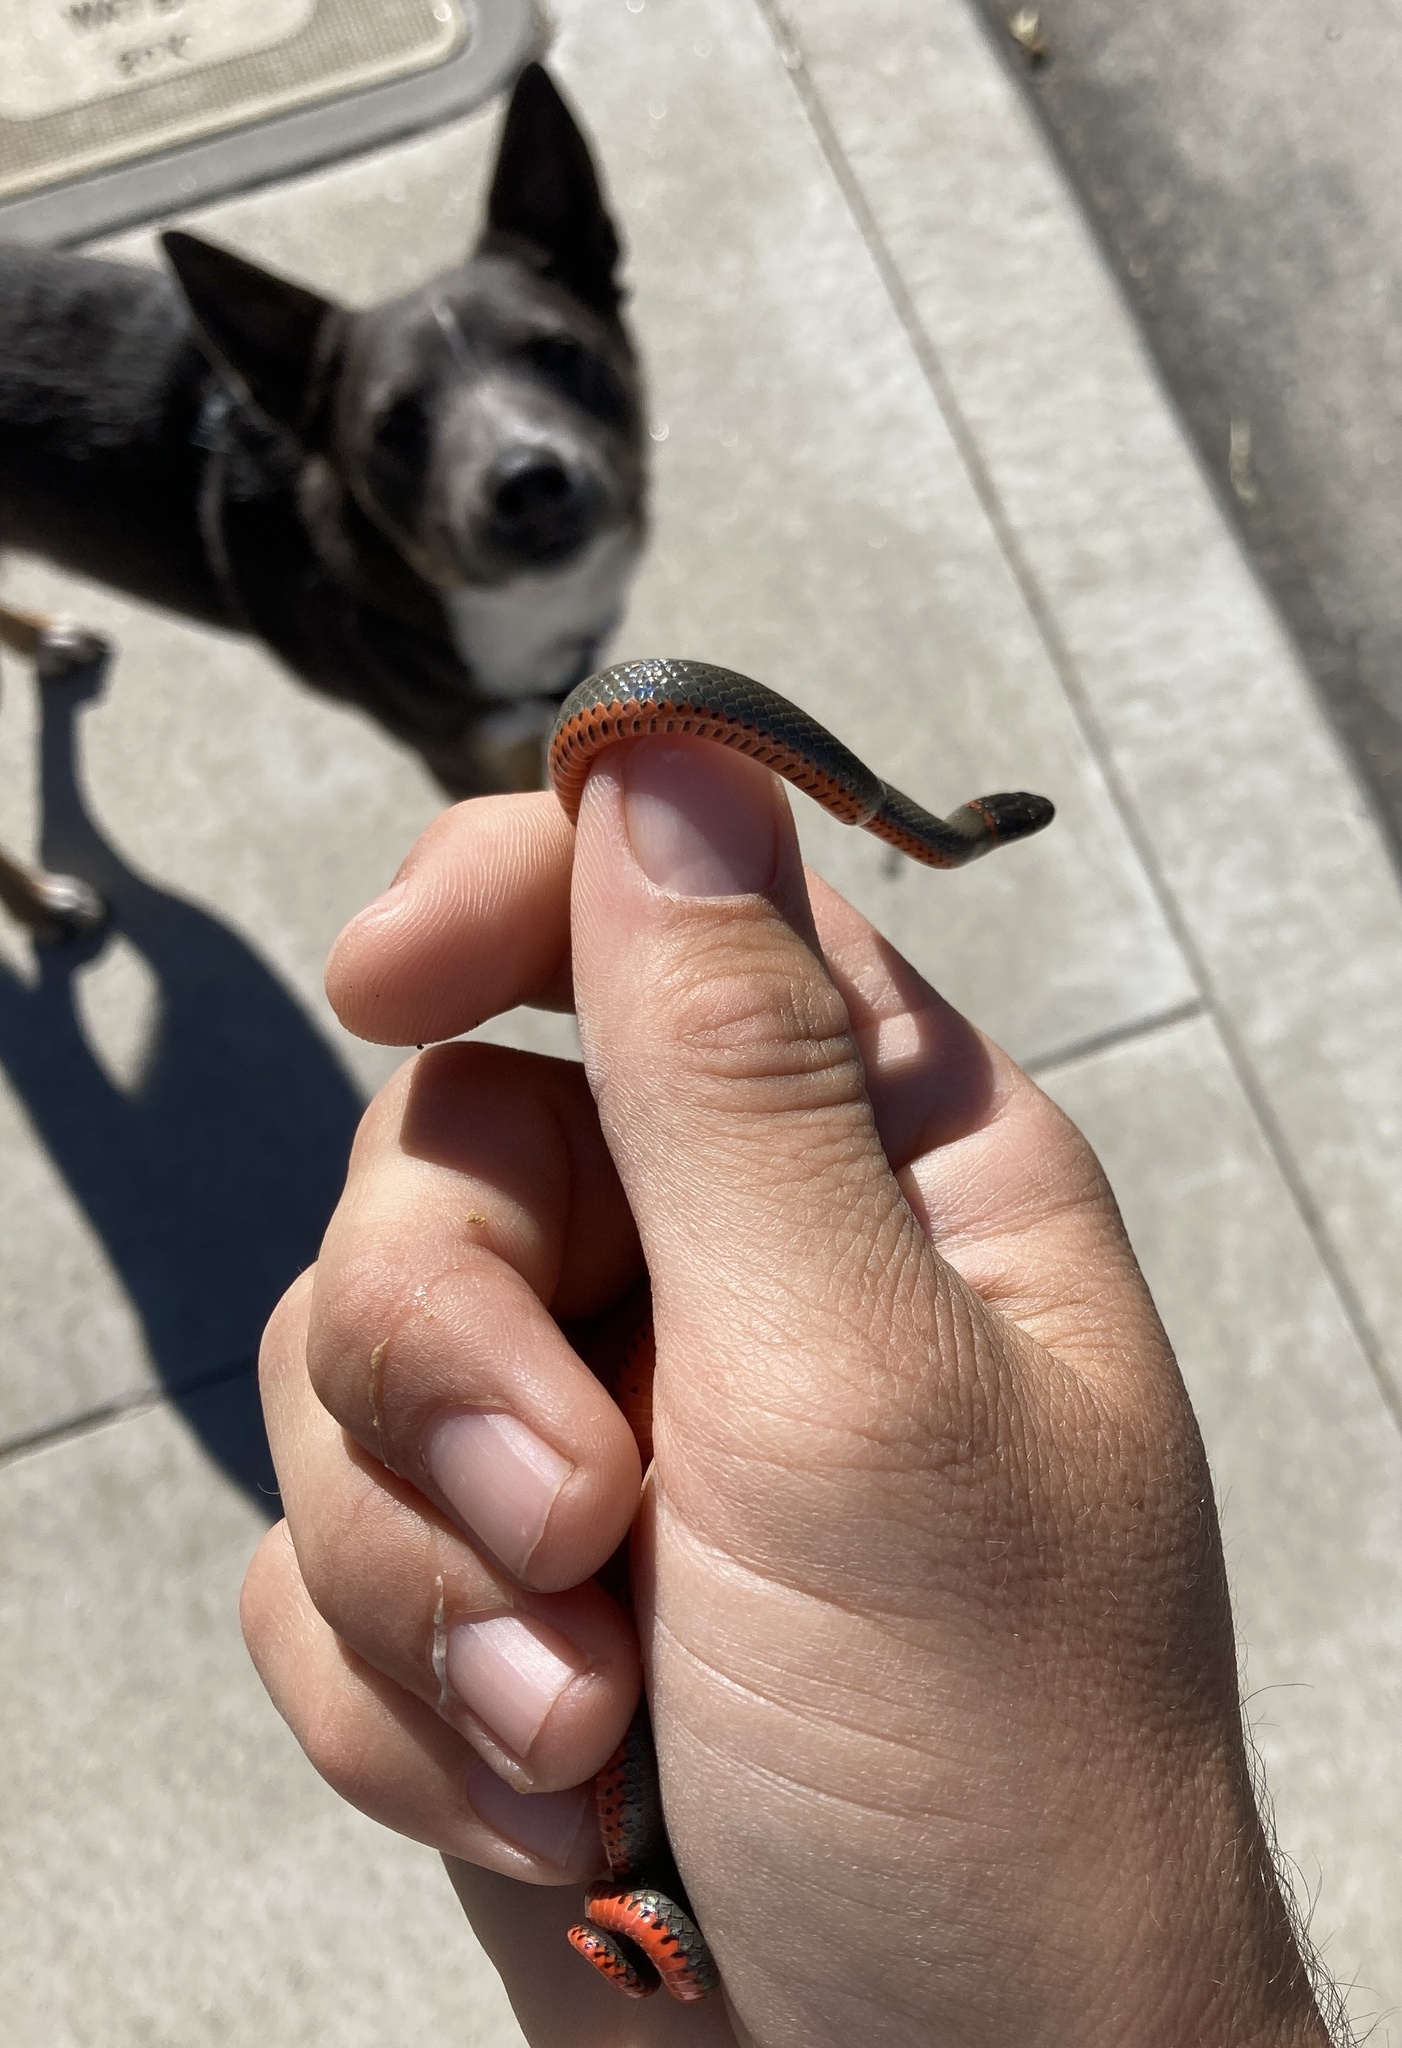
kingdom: Animalia
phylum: Chordata
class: Squamata
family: Colubridae
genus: Diadophis
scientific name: Diadophis punctatus
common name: Ringneck snake
